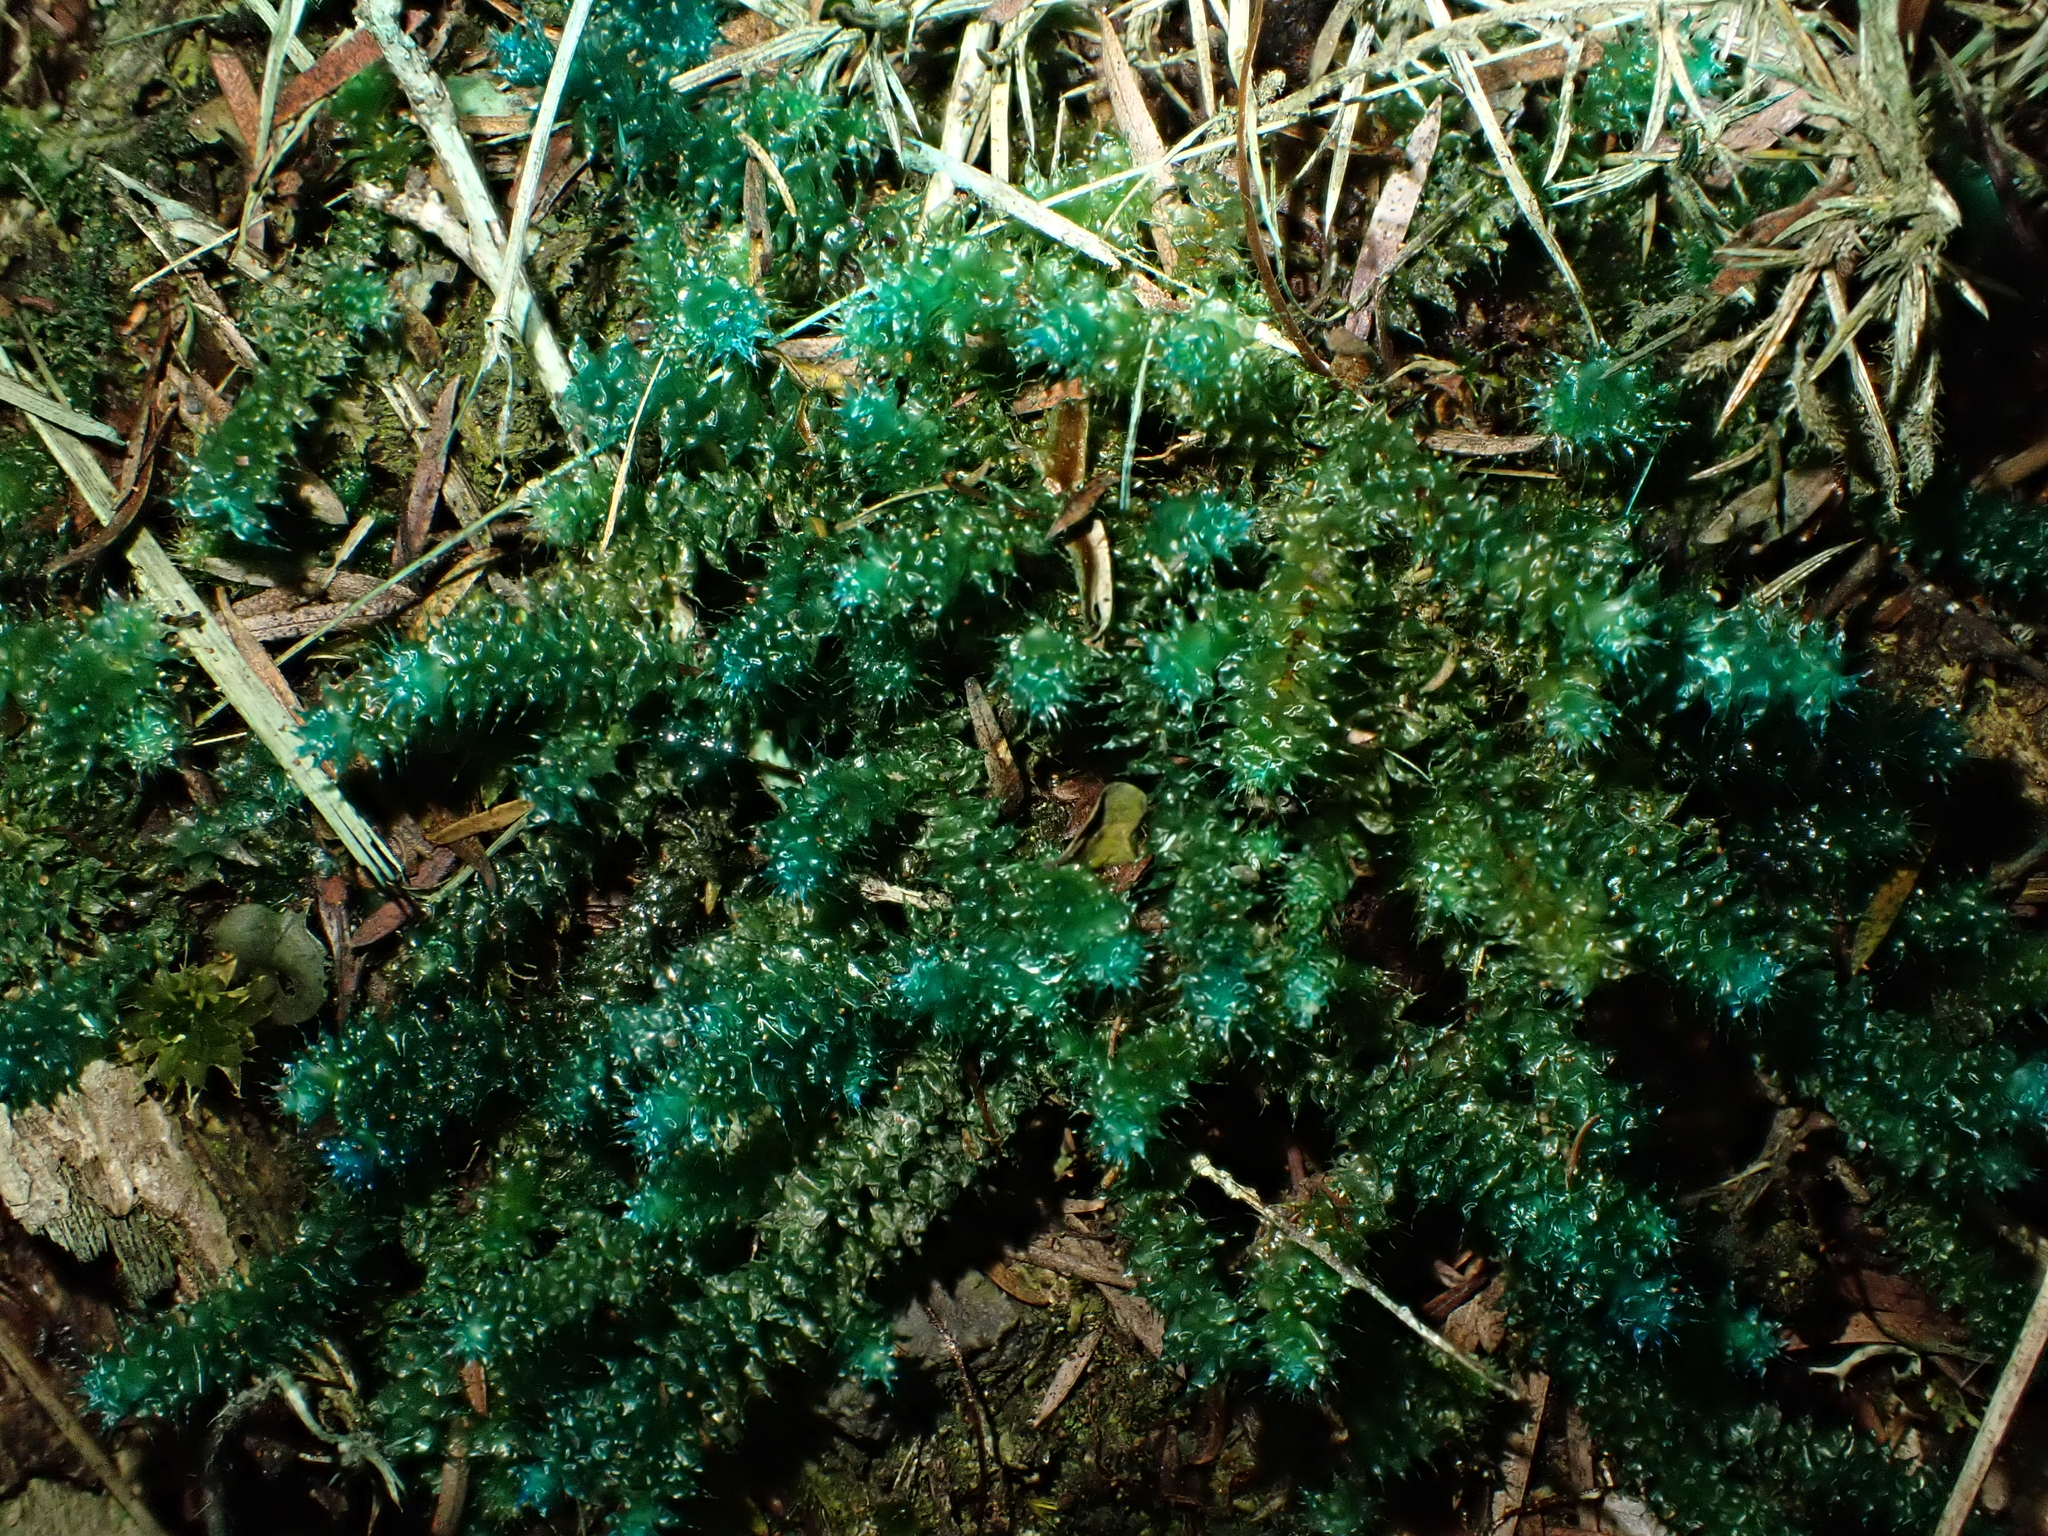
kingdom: Plantae
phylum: Bryophyta
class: Bryopsida
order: Ptychomniales
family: Ptychomniaceae
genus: Ptychomnion
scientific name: Ptychomnion aciculare
